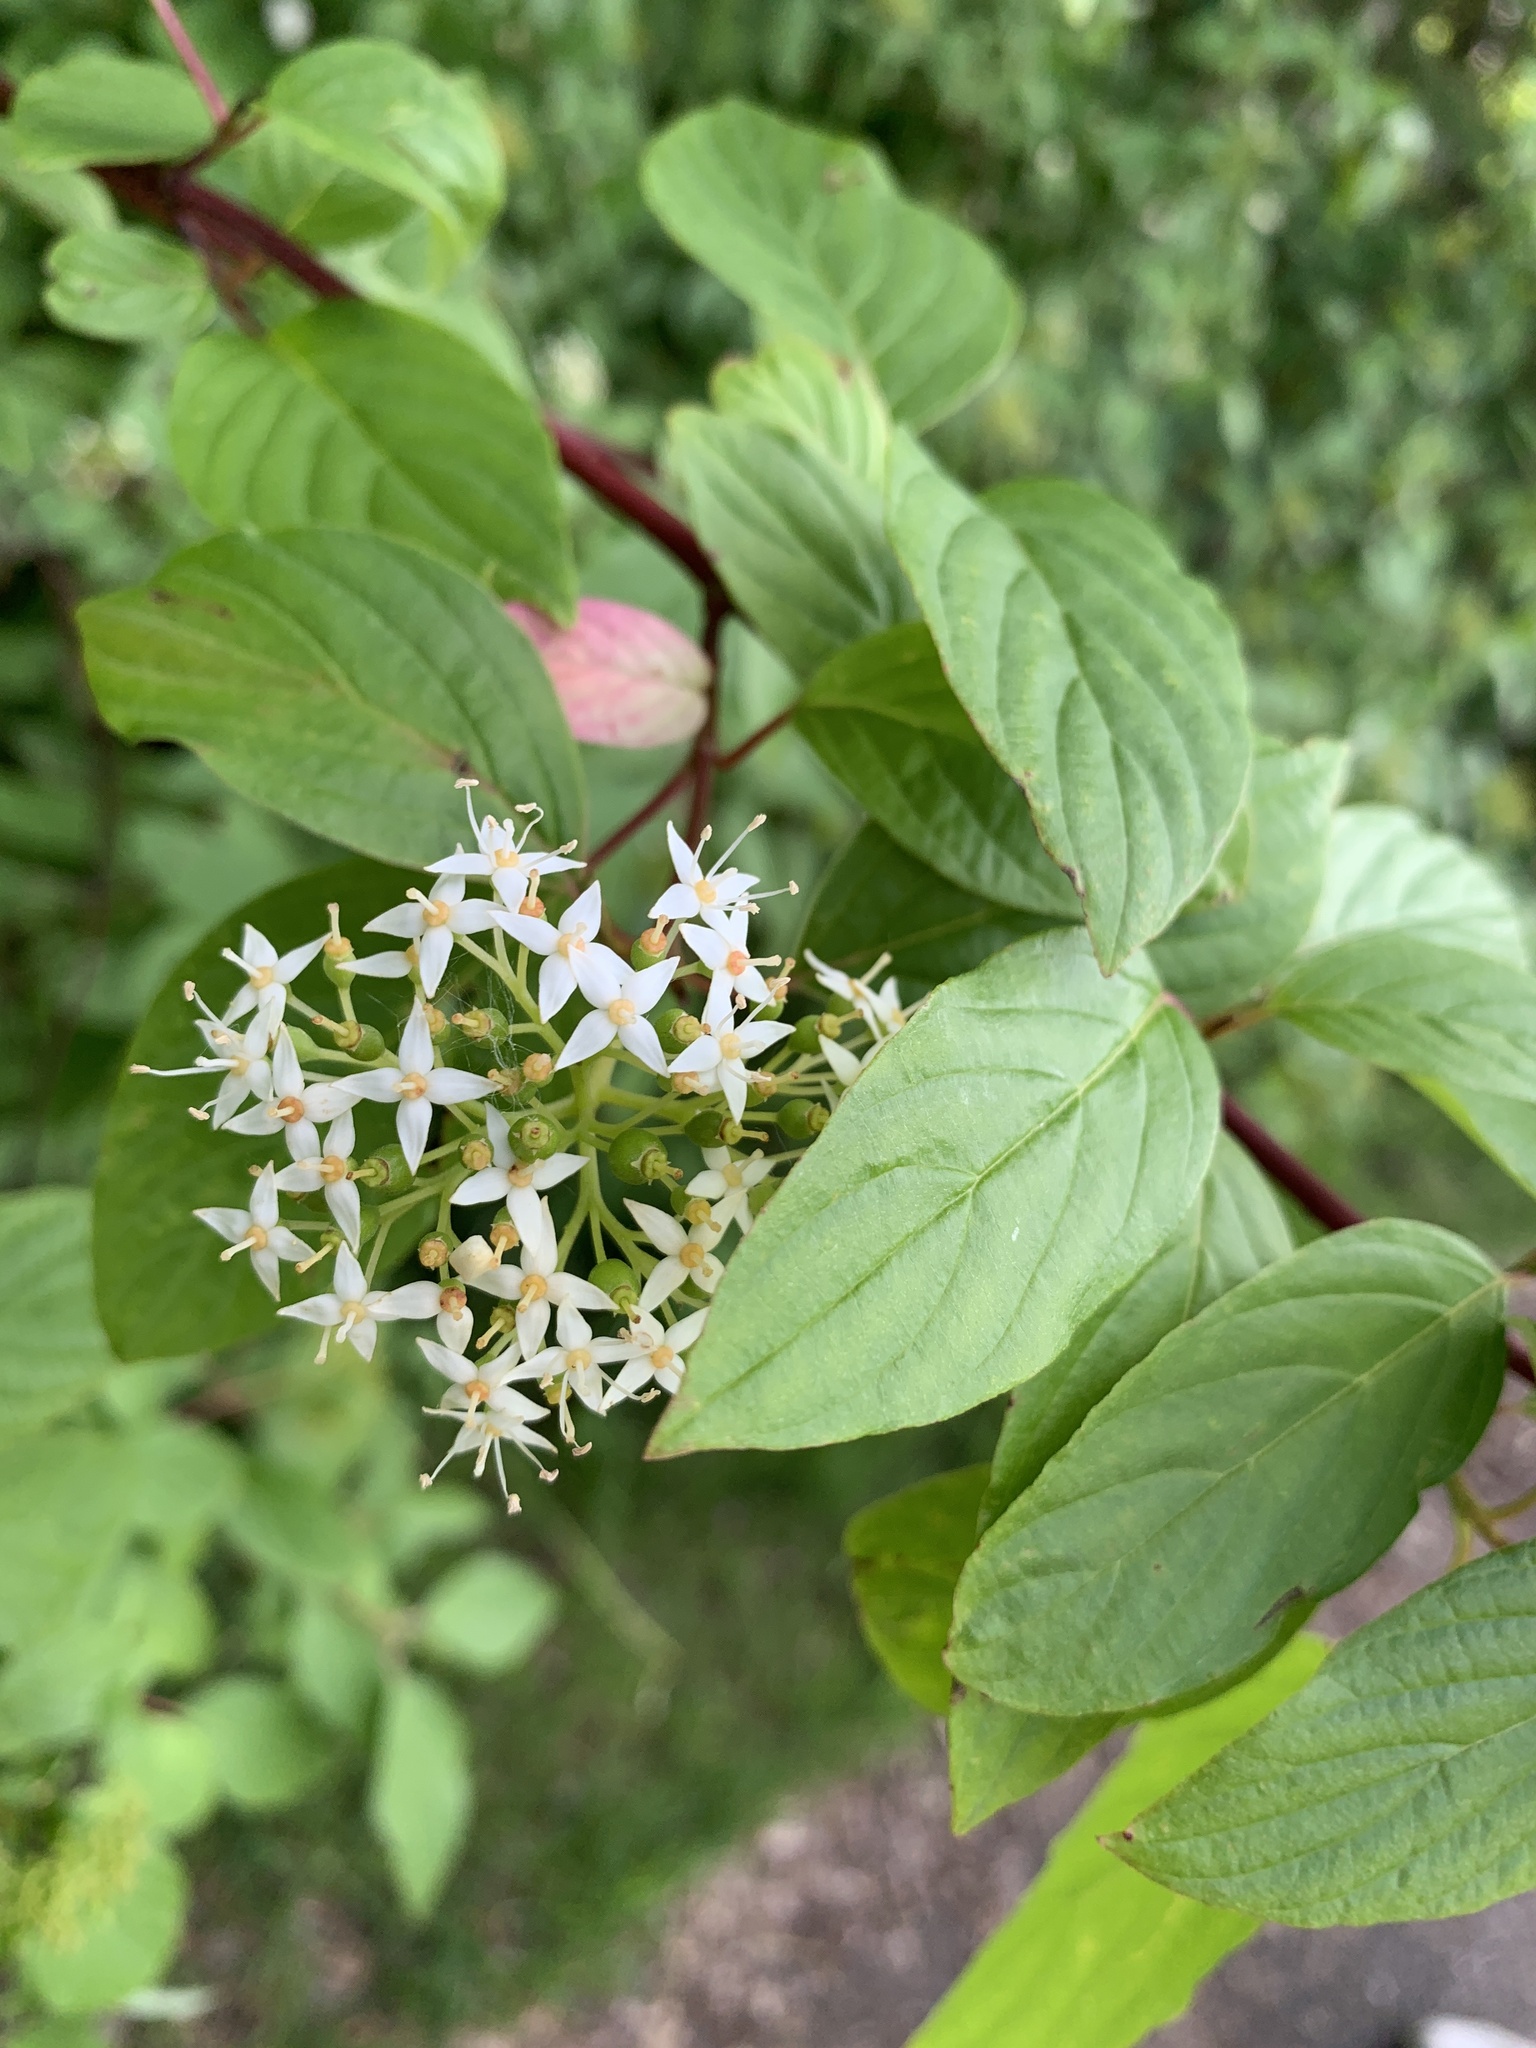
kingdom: Plantae
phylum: Tracheophyta
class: Magnoliopsida
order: Cornales
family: Cornaceae
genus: Cornus
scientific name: Cornus sericea
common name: Red-osier dogwood
